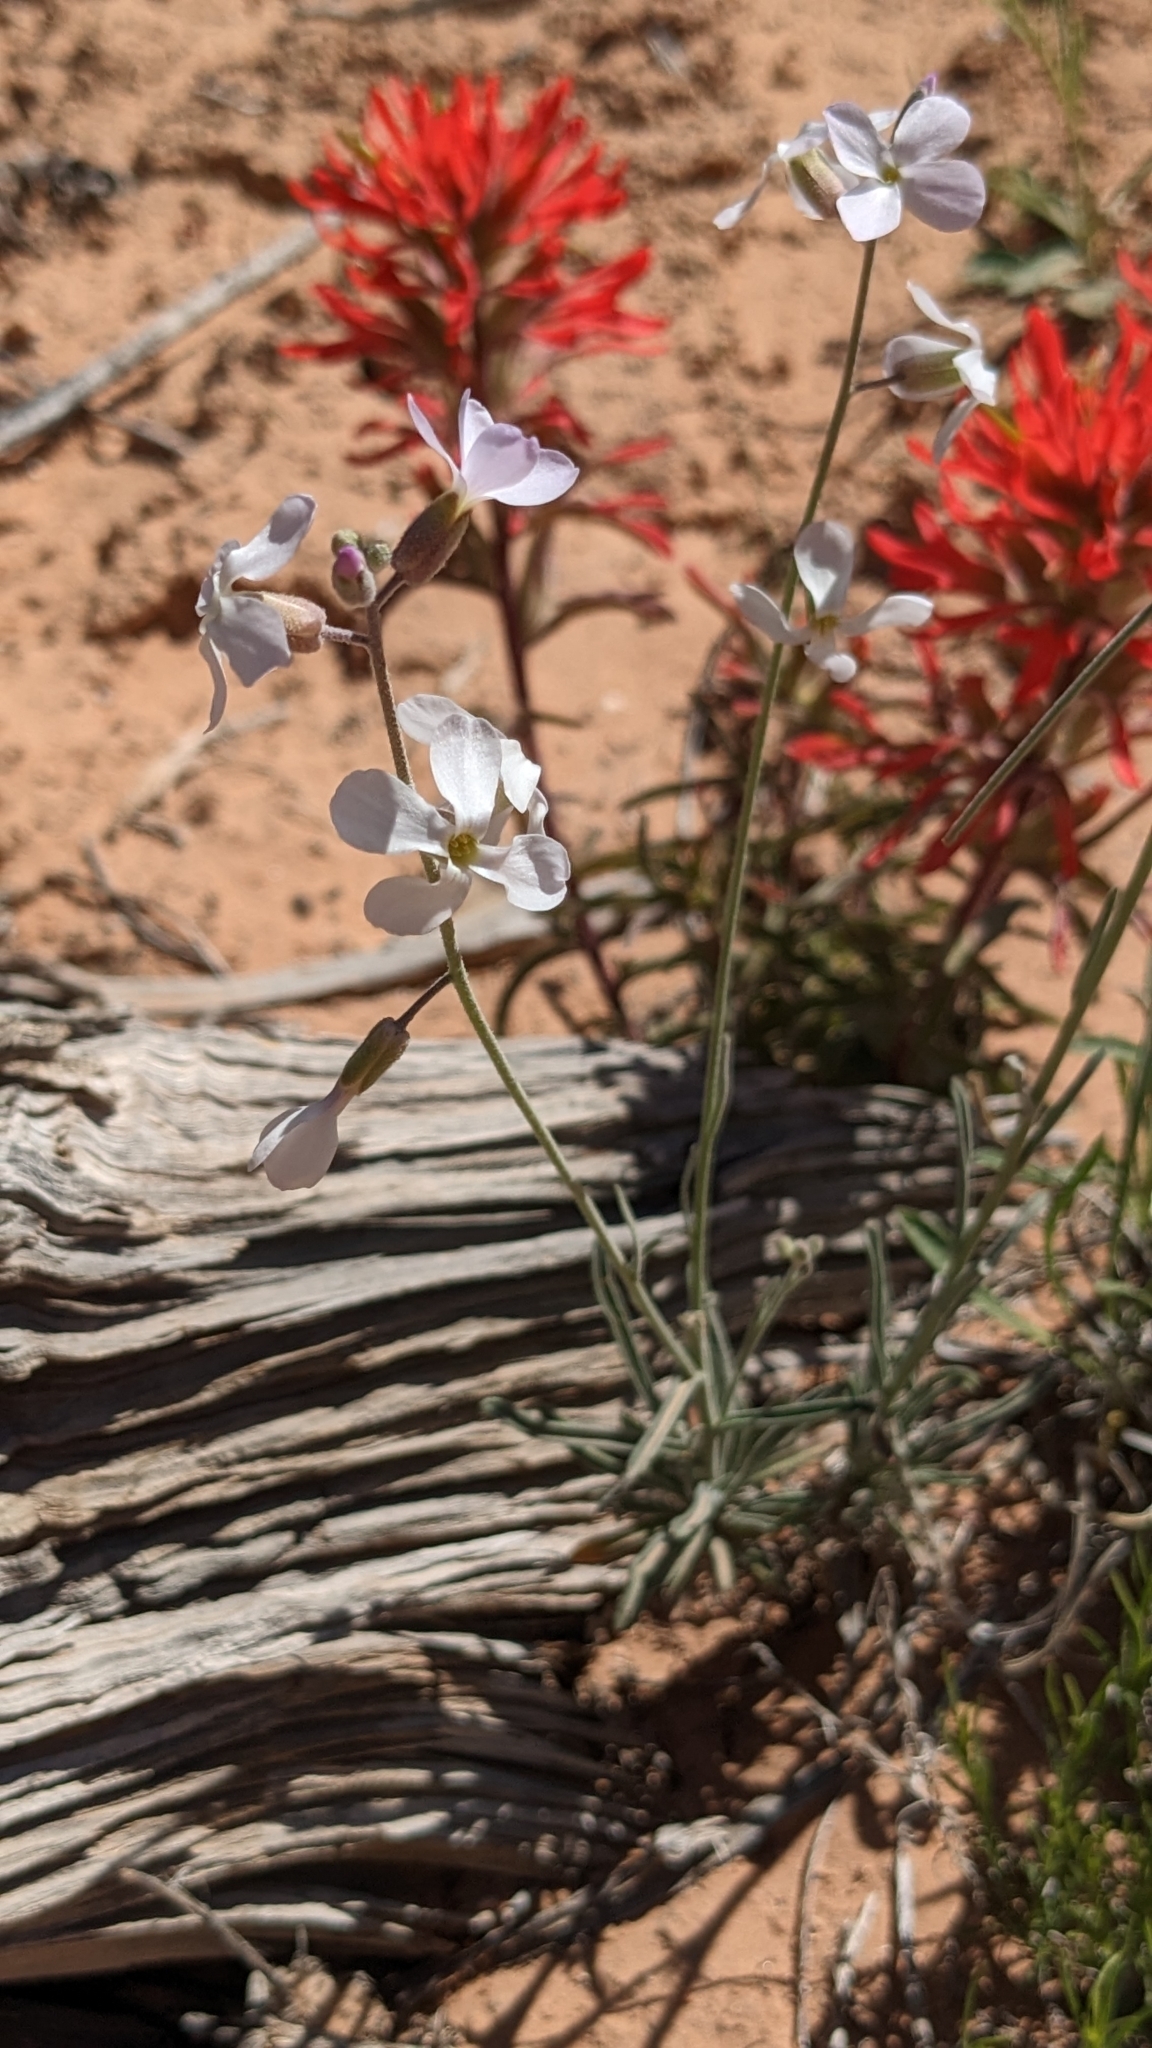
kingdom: Plantae
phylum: Tracheophyta
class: Magnoliopsida
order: Brassicales
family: Brassicaceae
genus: Boechera
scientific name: Boechera formosa
